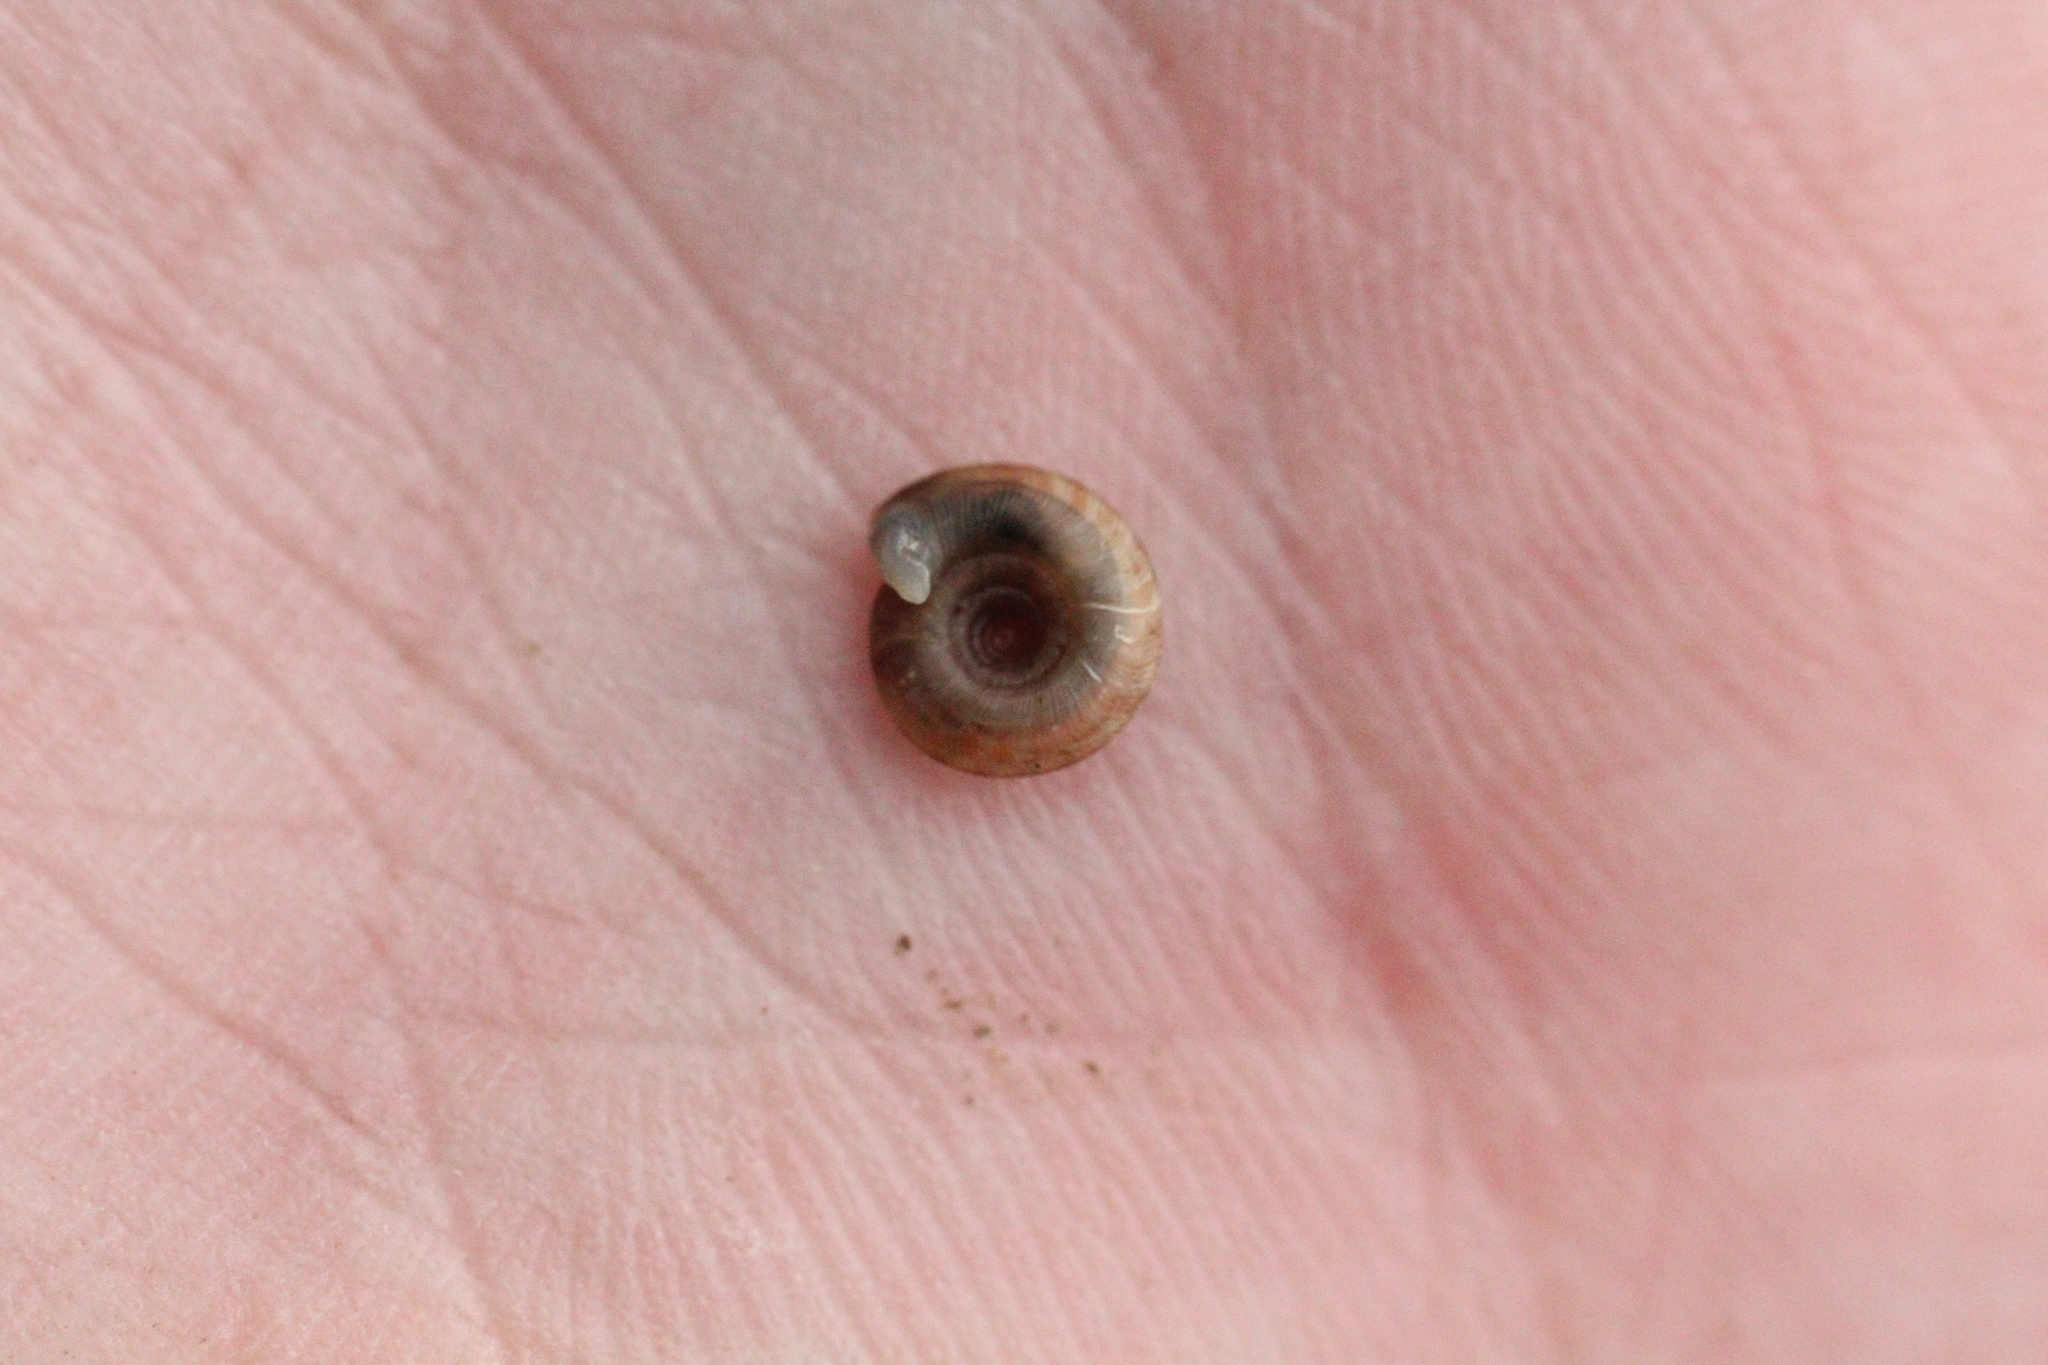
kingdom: Animalia
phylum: Mollusca
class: Gastropoda
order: Stylommatophora
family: Discidae
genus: Discus
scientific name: Discus rotundatus
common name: Rounded snail
